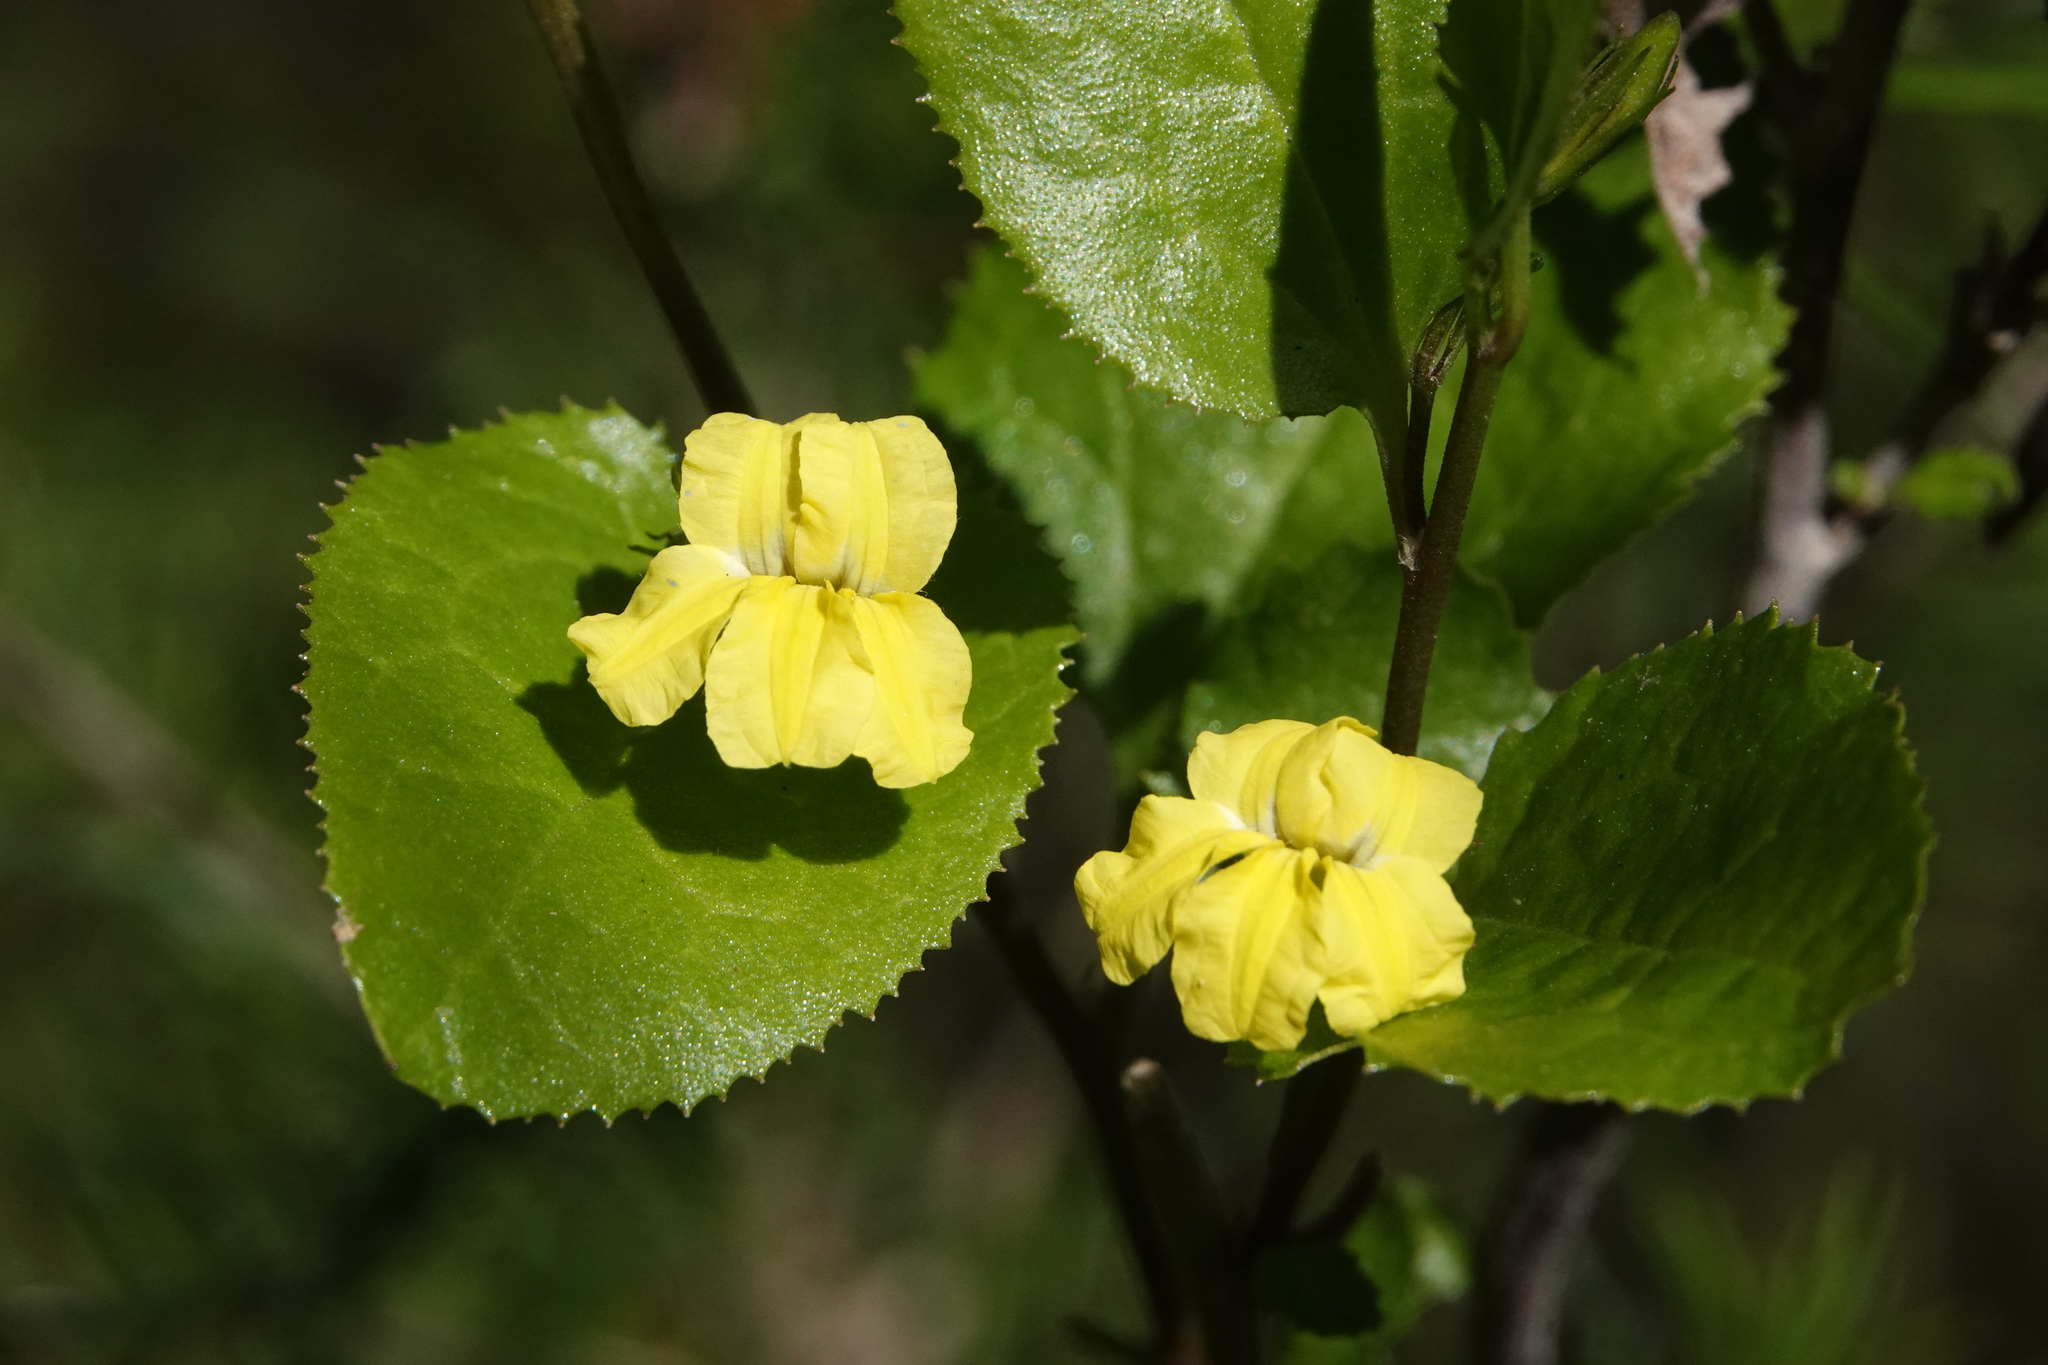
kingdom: Plantae
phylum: Tracheophyta
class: Magnoliopsida
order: Asterales
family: Goodeniaceae
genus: Goodenia
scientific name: Goodenia ovata
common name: Hop goodenia
